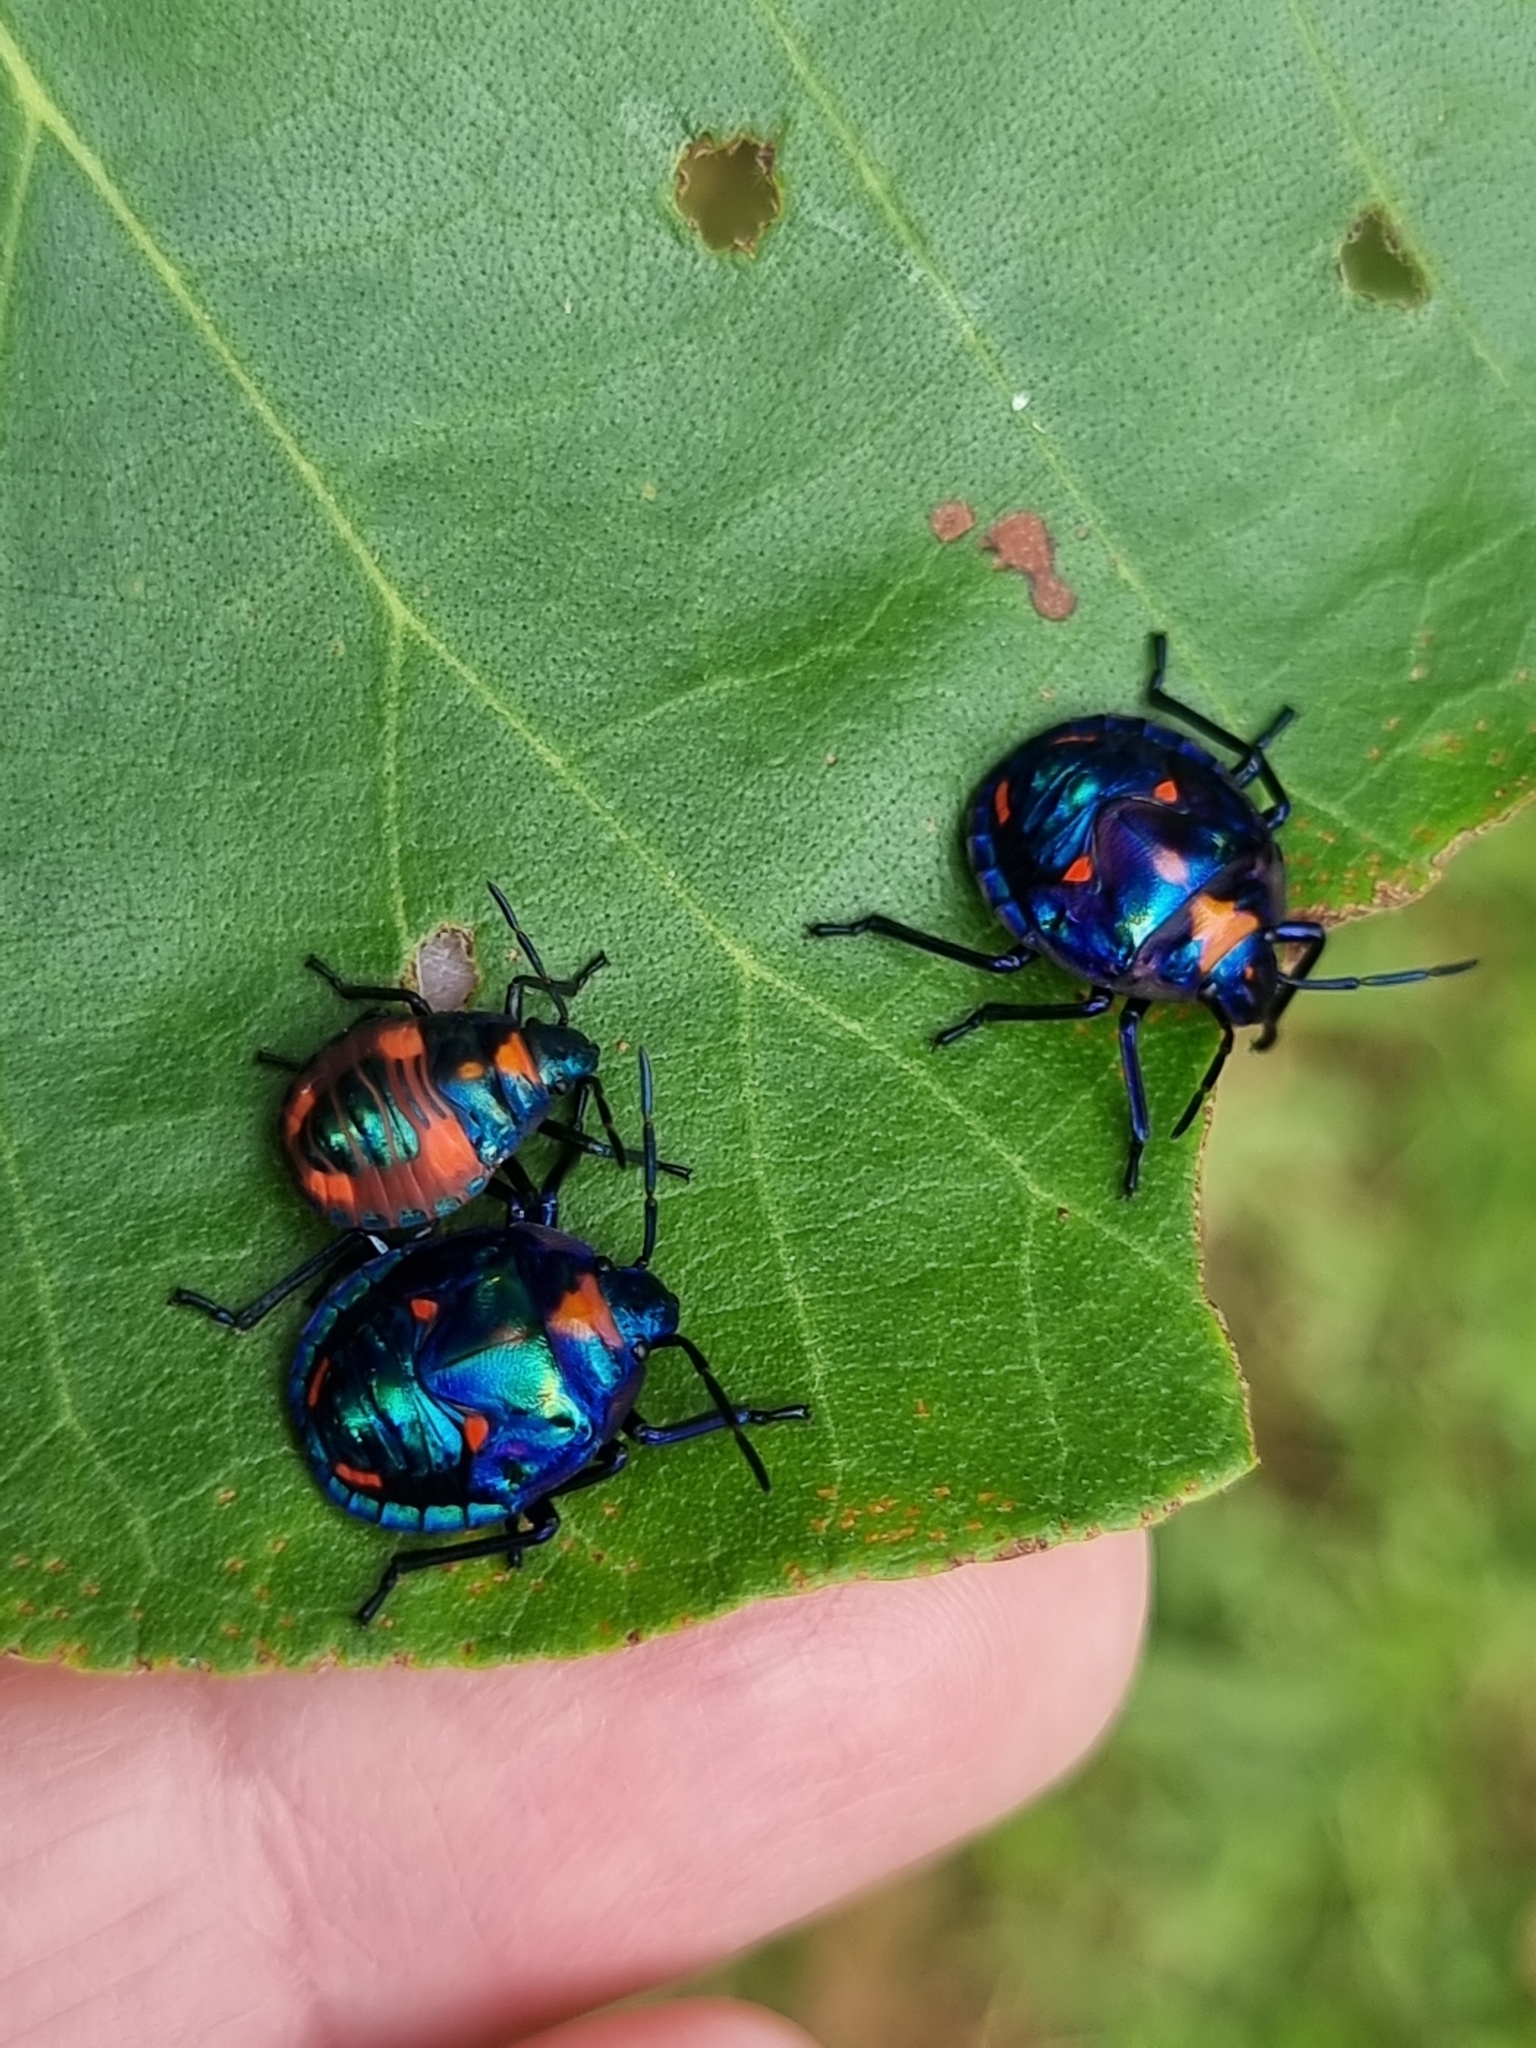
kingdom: Animalia
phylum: Arthropoda
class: Insecta
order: Hemiptera
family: Scutelleridae
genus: Tectocoris
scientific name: Tectocoris diophthalmus
